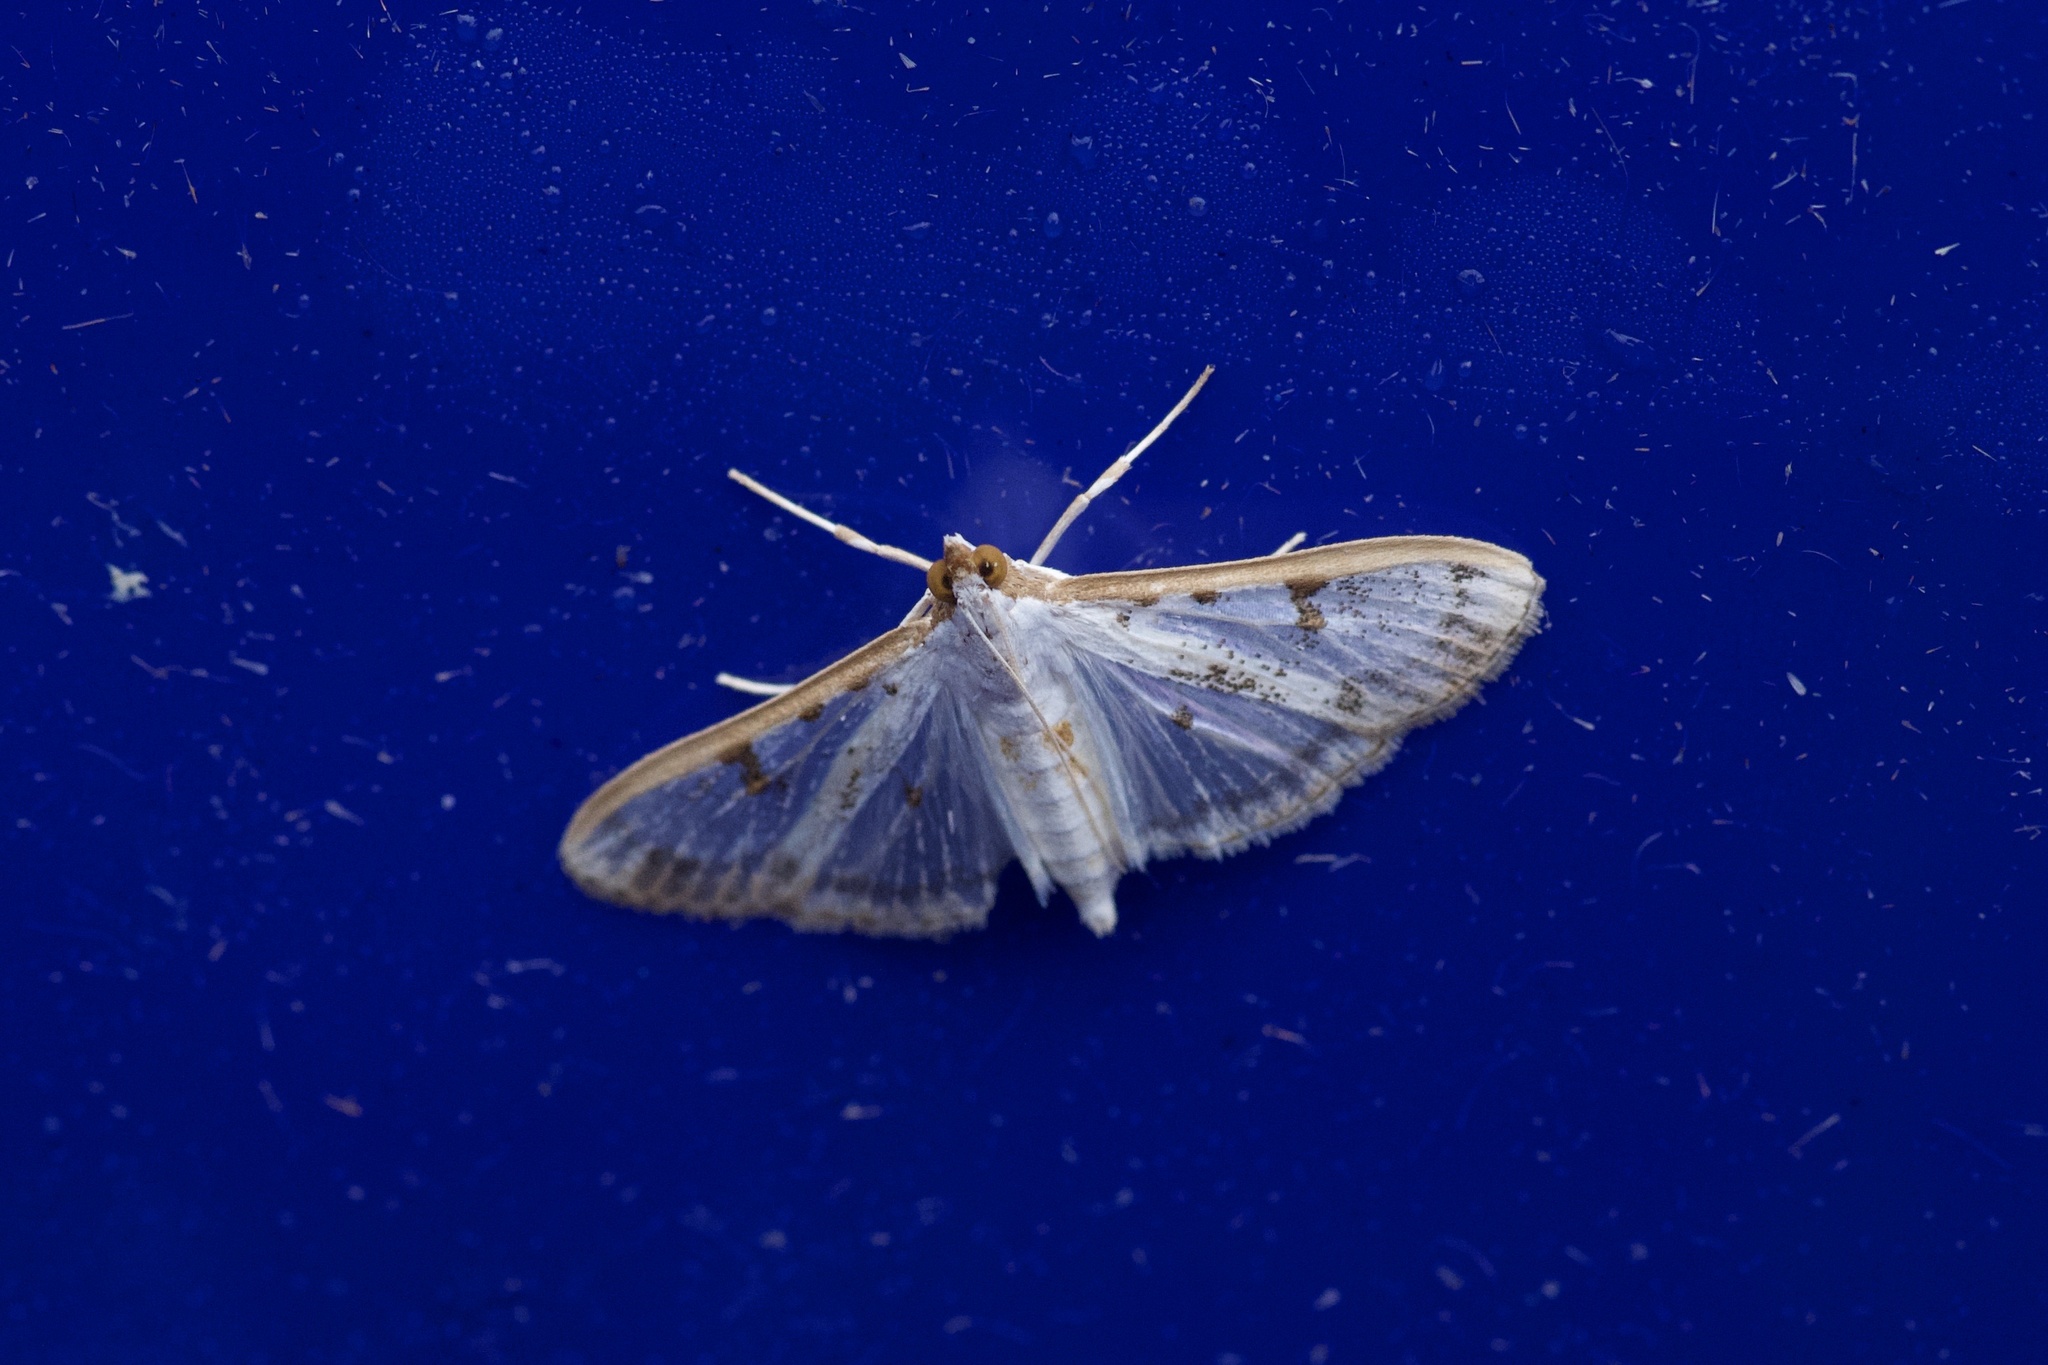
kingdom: Animalia
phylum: Arthropoda
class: Insecta
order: Lepidoptera
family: Crambidae
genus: Palpita
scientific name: Palpita gracilalis
